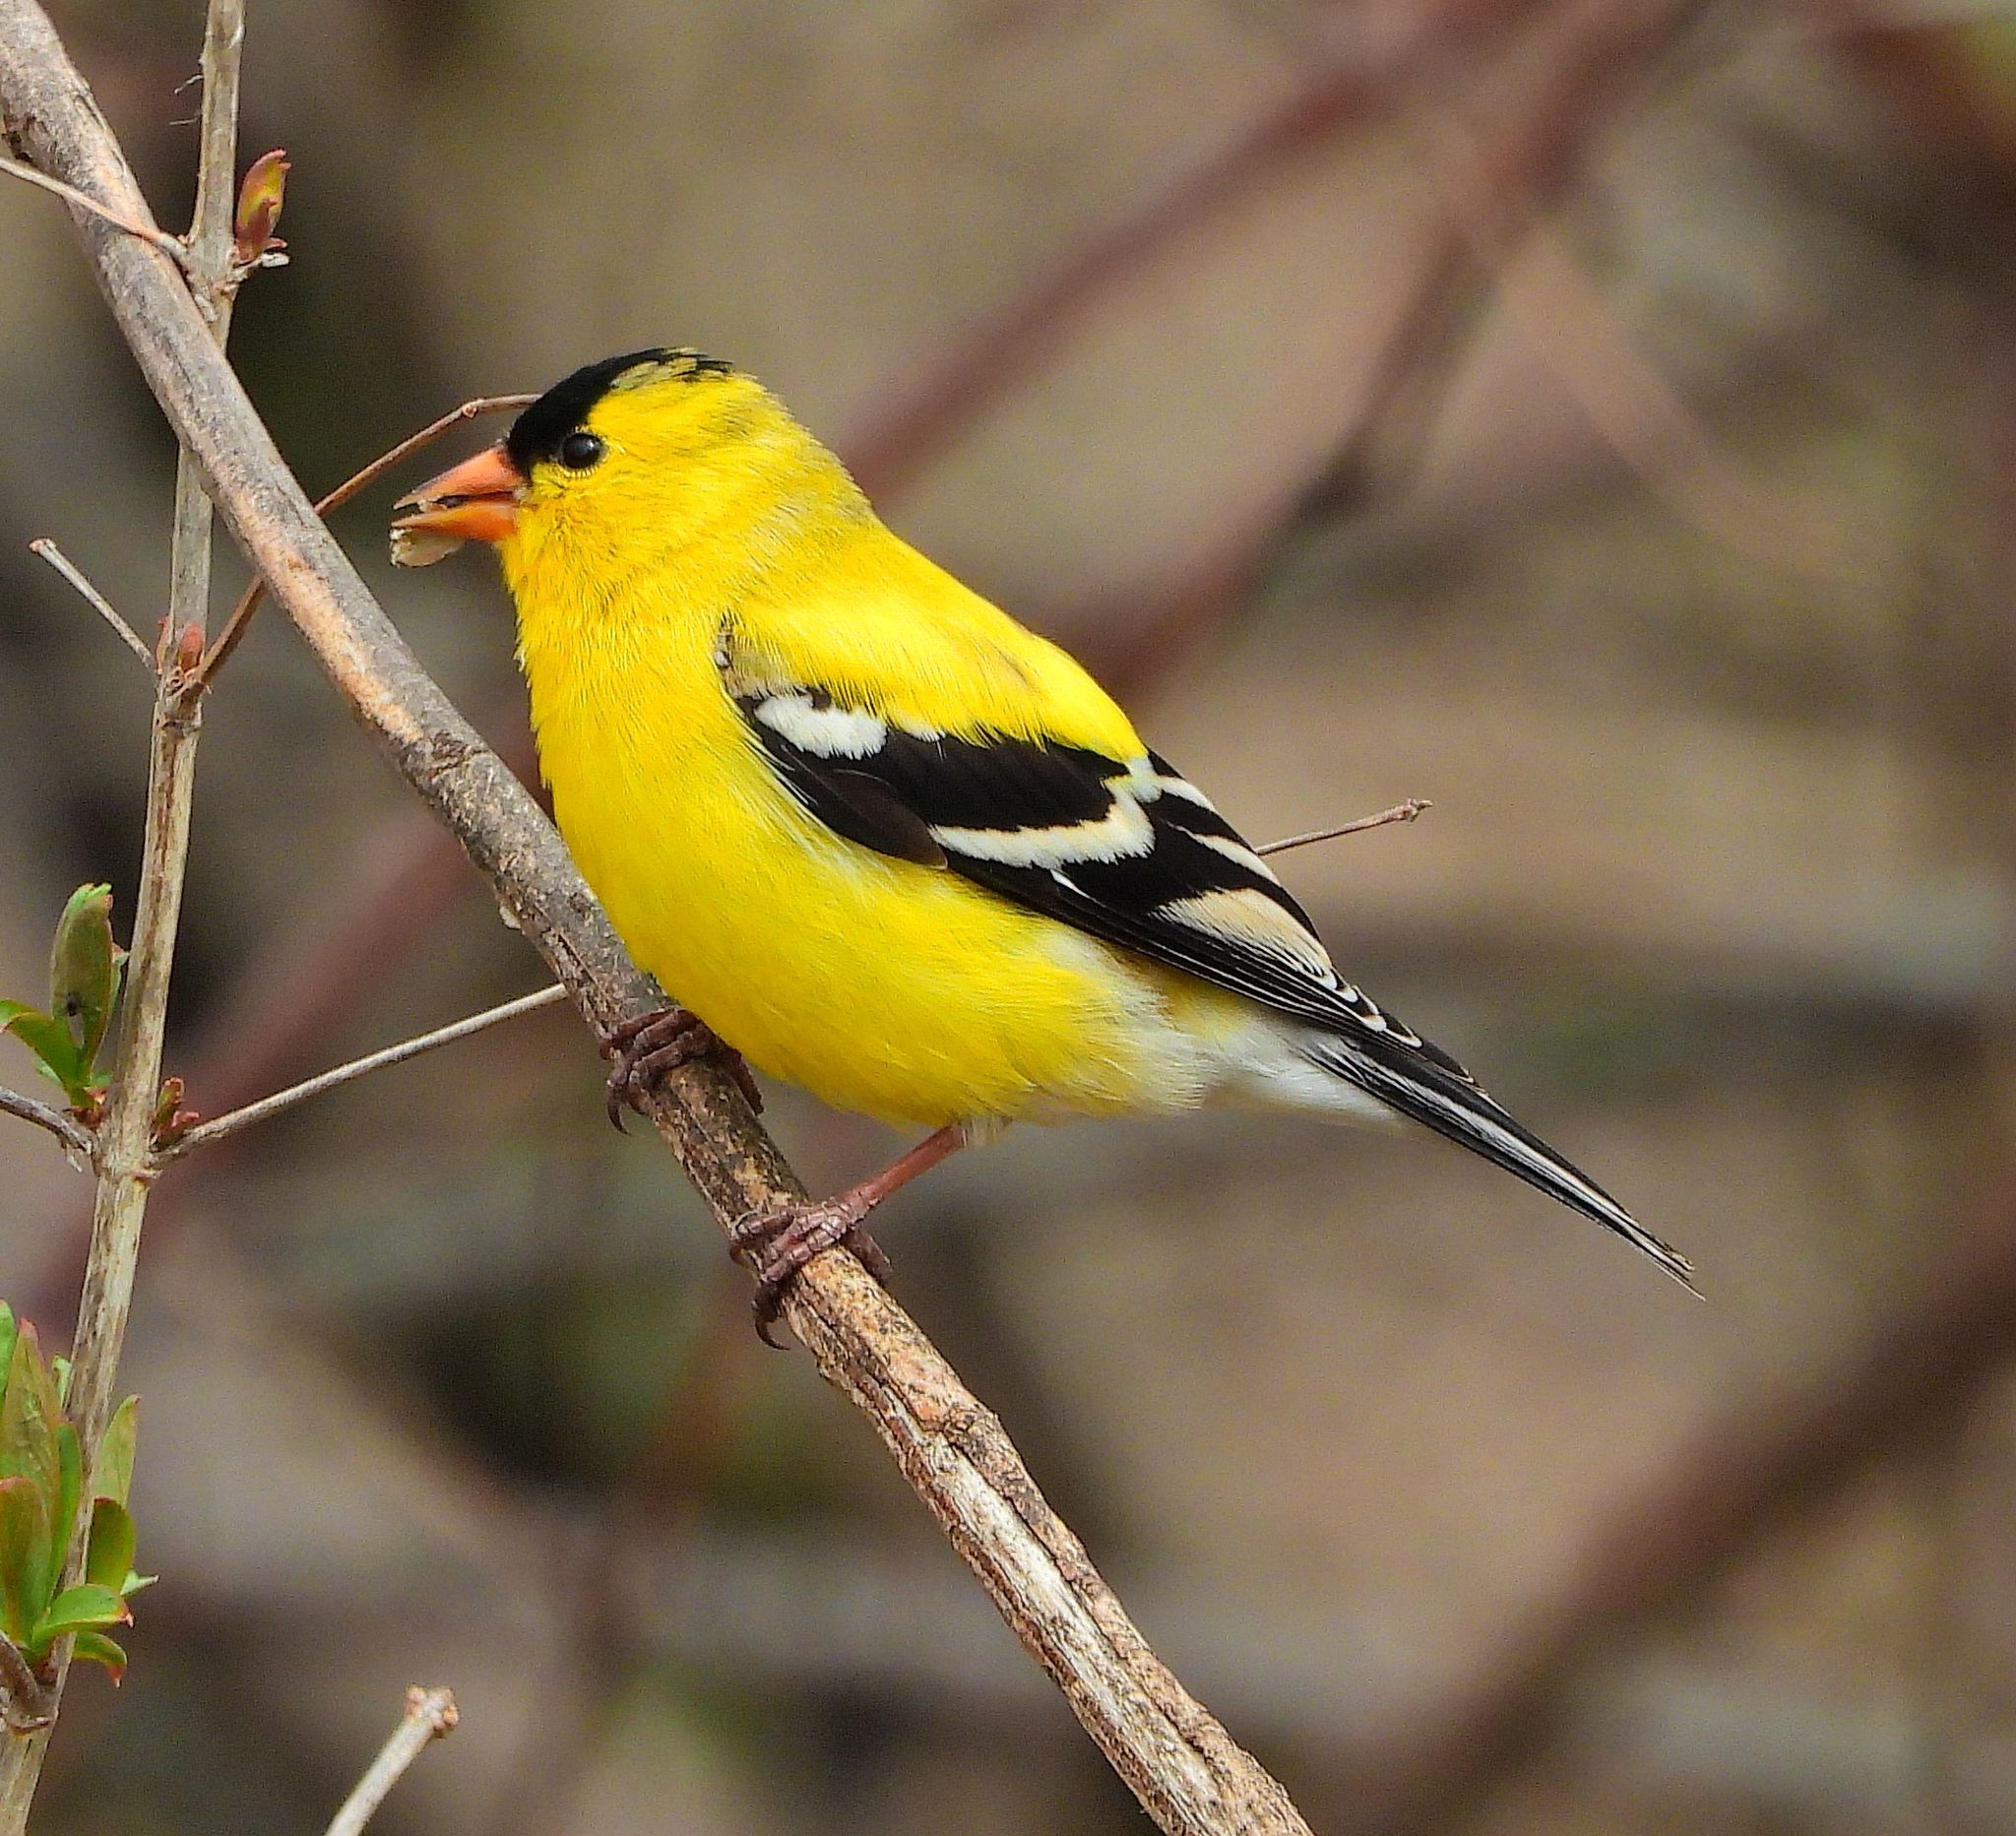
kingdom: Animalia
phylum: Chordata
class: Aves
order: Passeriformes
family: Fringillidae
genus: Spinus
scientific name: Spinus tristis
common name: American goldfinch
